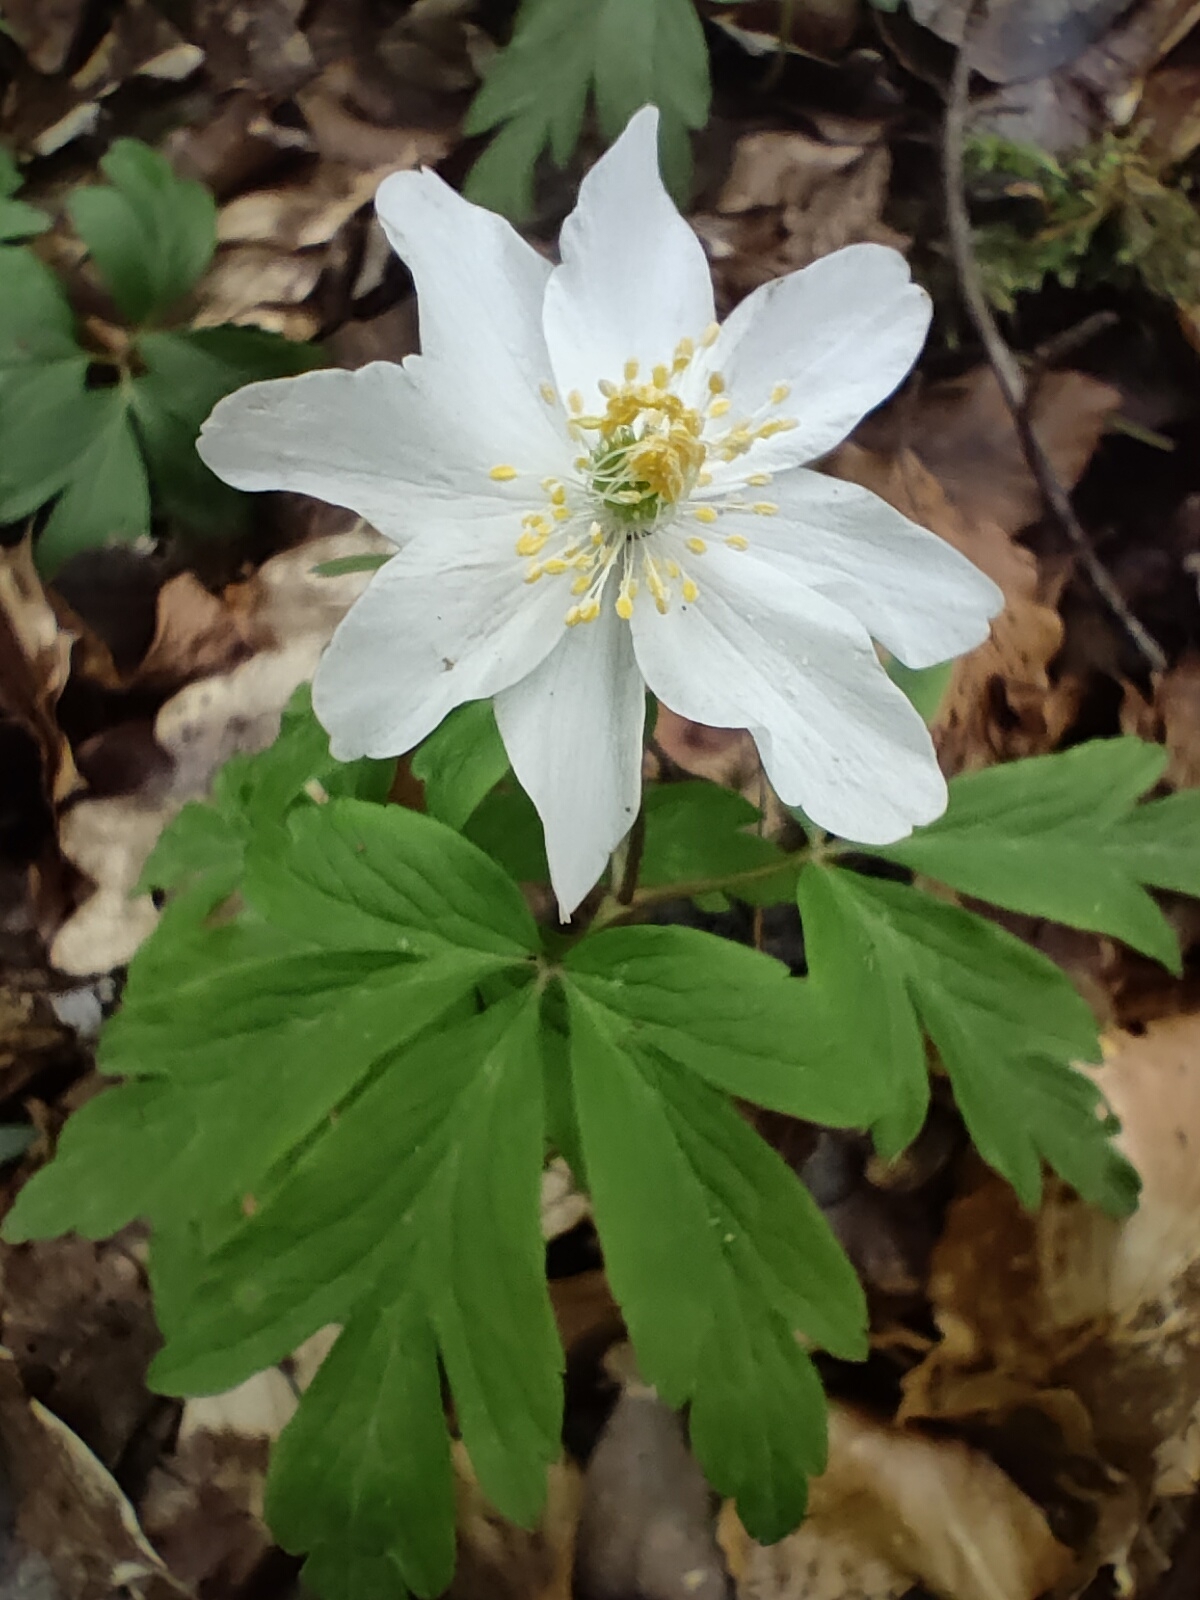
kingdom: Plantae
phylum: Tracheophyta
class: Magnoliopsida
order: Ranunculales
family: Ranunculaceae
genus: Anemone
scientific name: Anemone nemorosa
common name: Wood anemone
